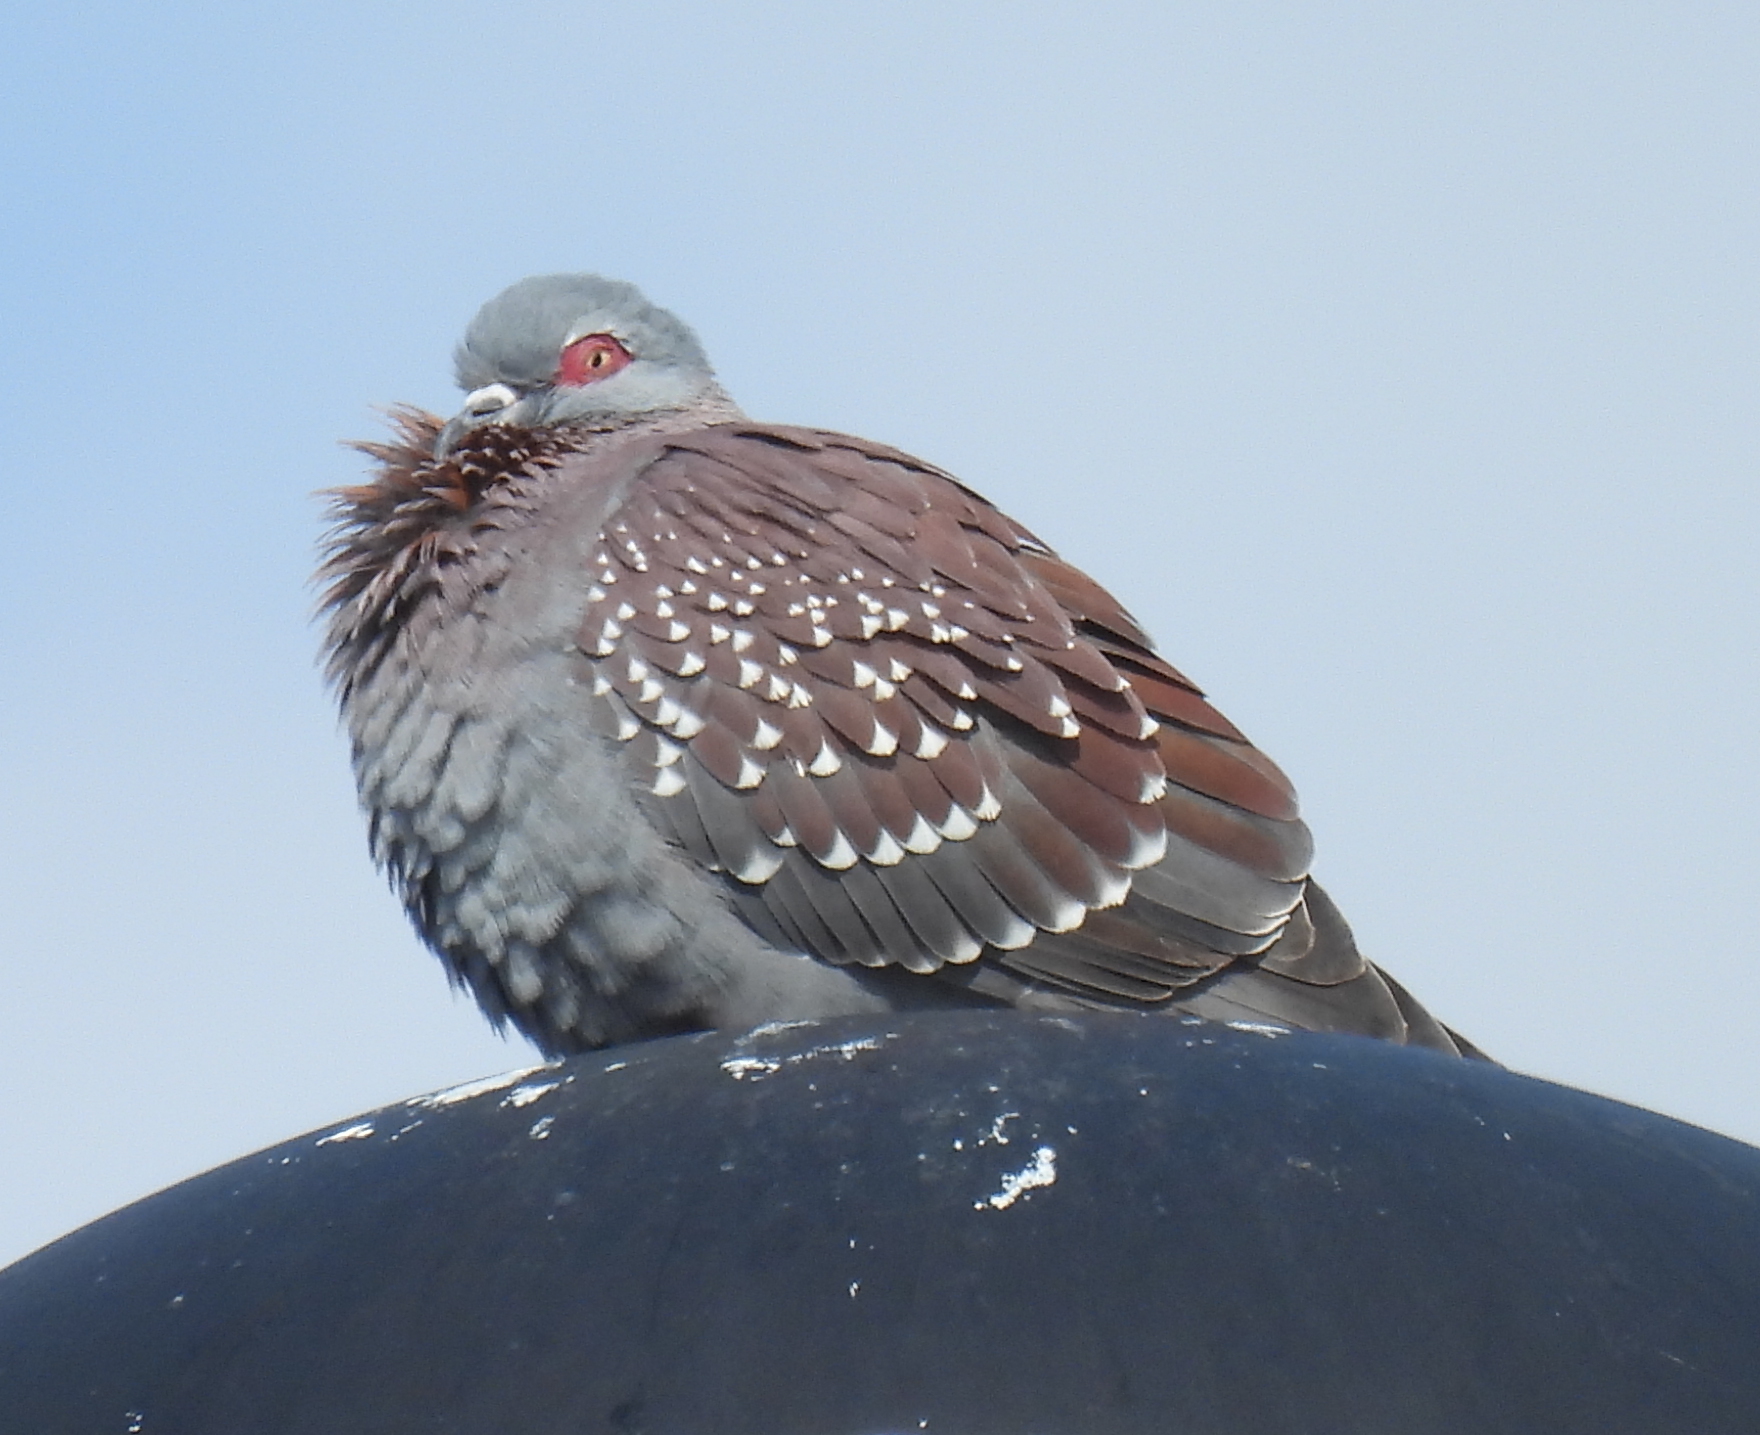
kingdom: Animalia
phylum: Chordata
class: Aves
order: Columbiformes
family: Columbidae
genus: Columba
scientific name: Columba guinea
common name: Speckled pigeon
